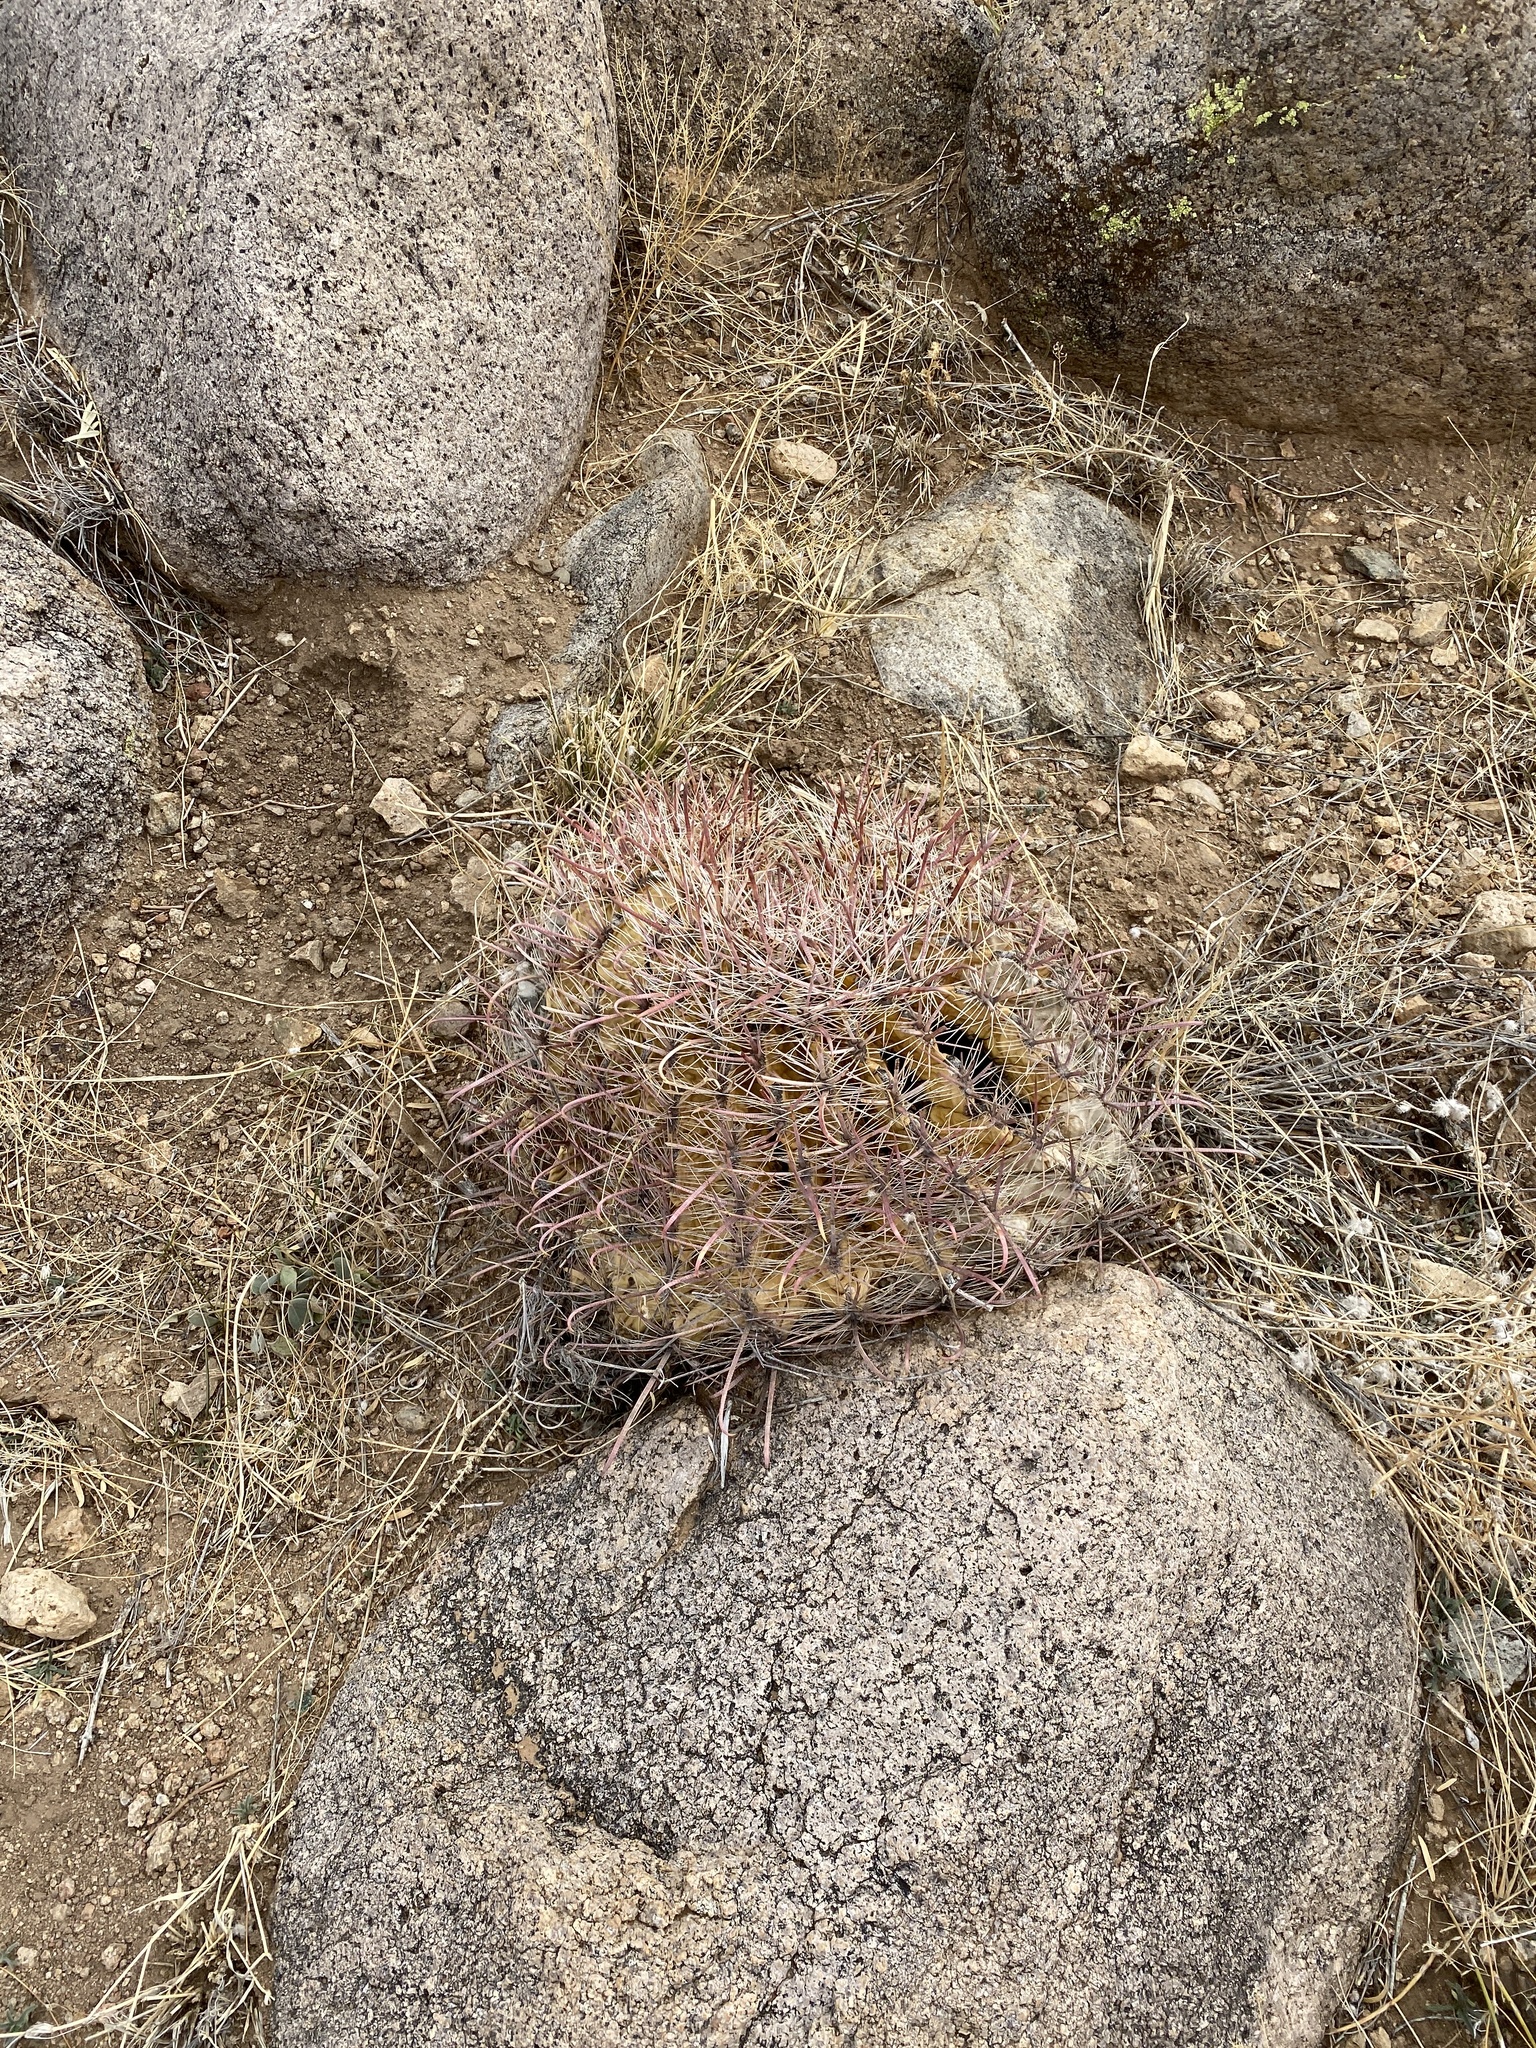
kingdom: Plantae
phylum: Tracheophyta
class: Magnoliopsida
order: Caryophyllales
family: Cactaceae
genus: Ferocactus
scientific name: Ferocactus wislizeni
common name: Candy barrel cactus
